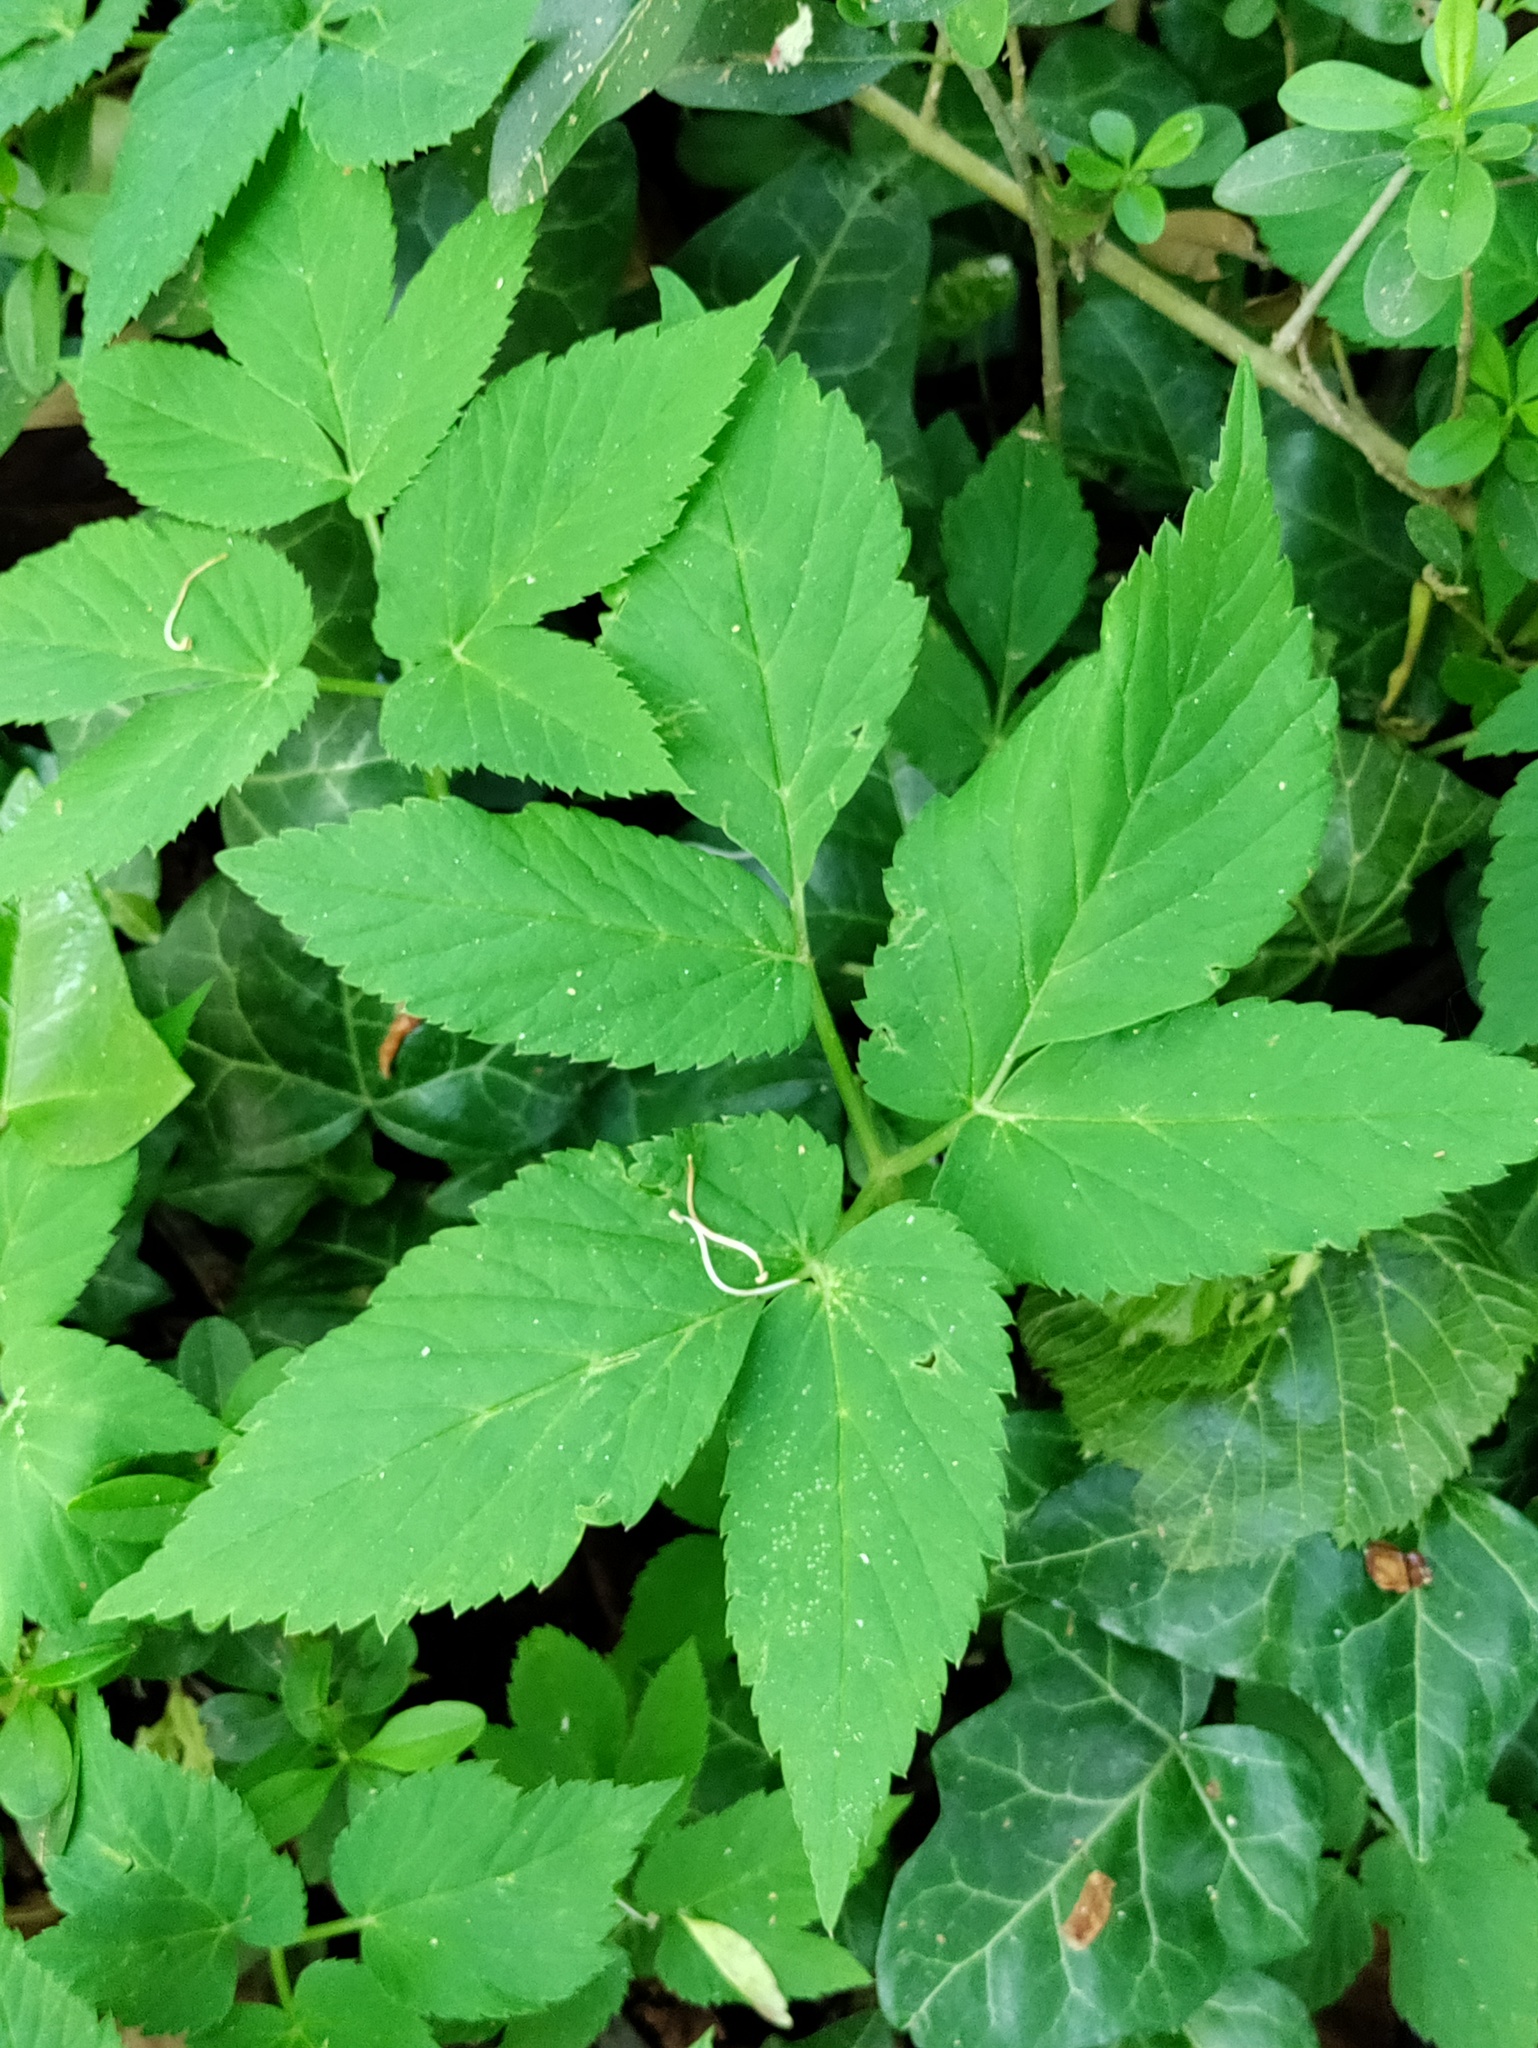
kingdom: Plantae
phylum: Tracheophyta
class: Magnoliopsida
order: Apiales
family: Apiaceae
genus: Aegopodium
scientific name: Aegopodium podagraria
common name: Ground-elder
